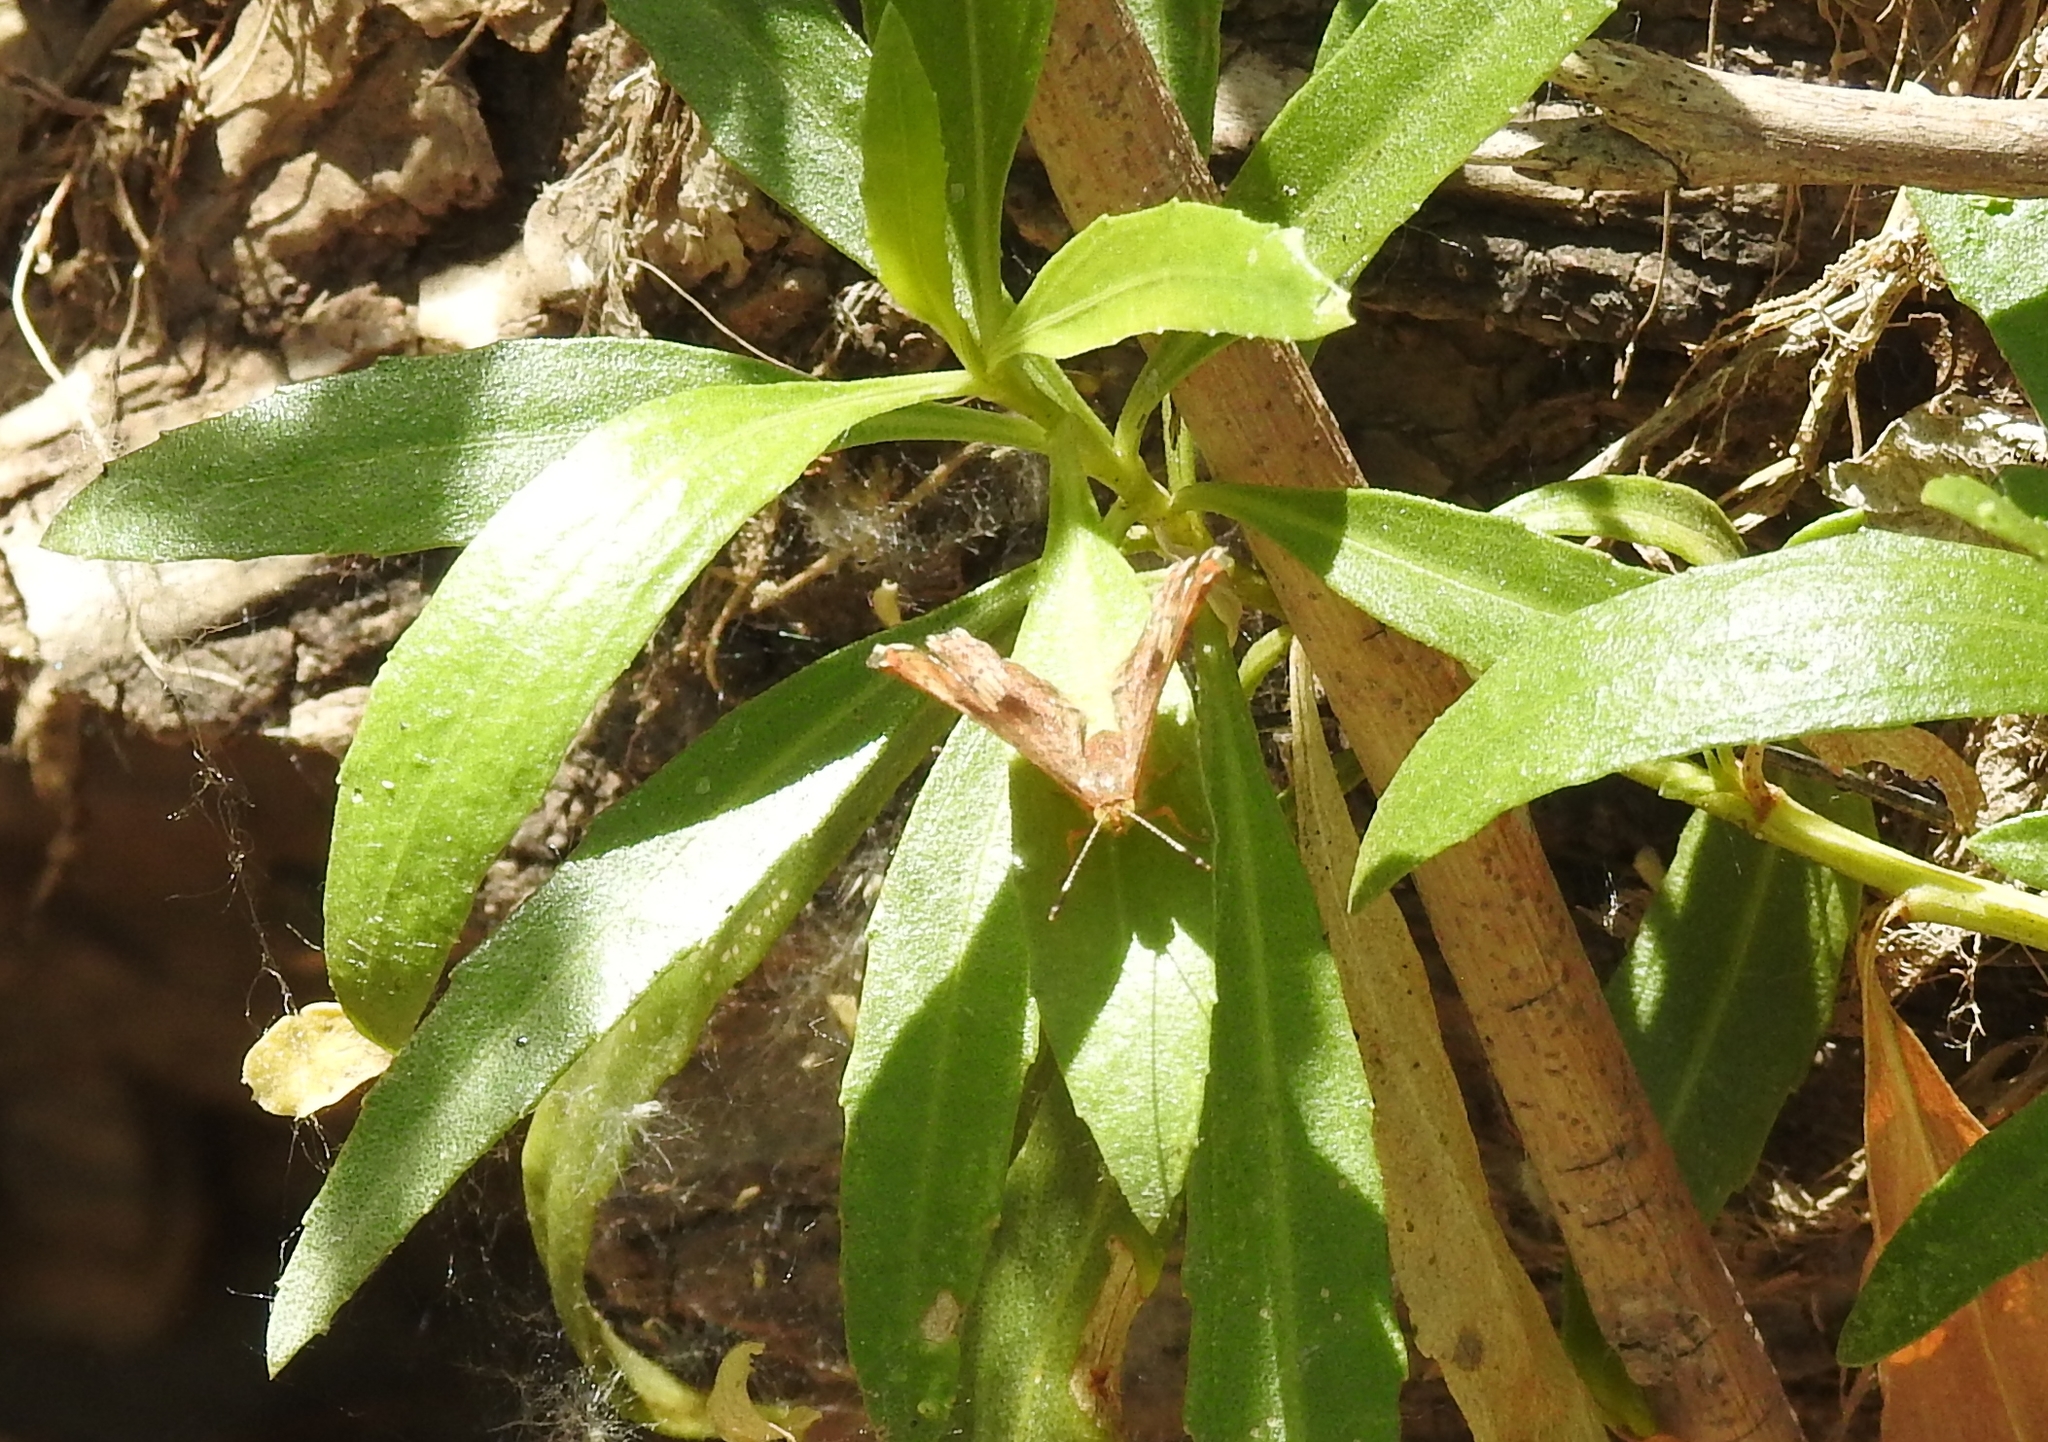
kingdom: Animalia
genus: Calephelis
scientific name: Calephelis nemesis
